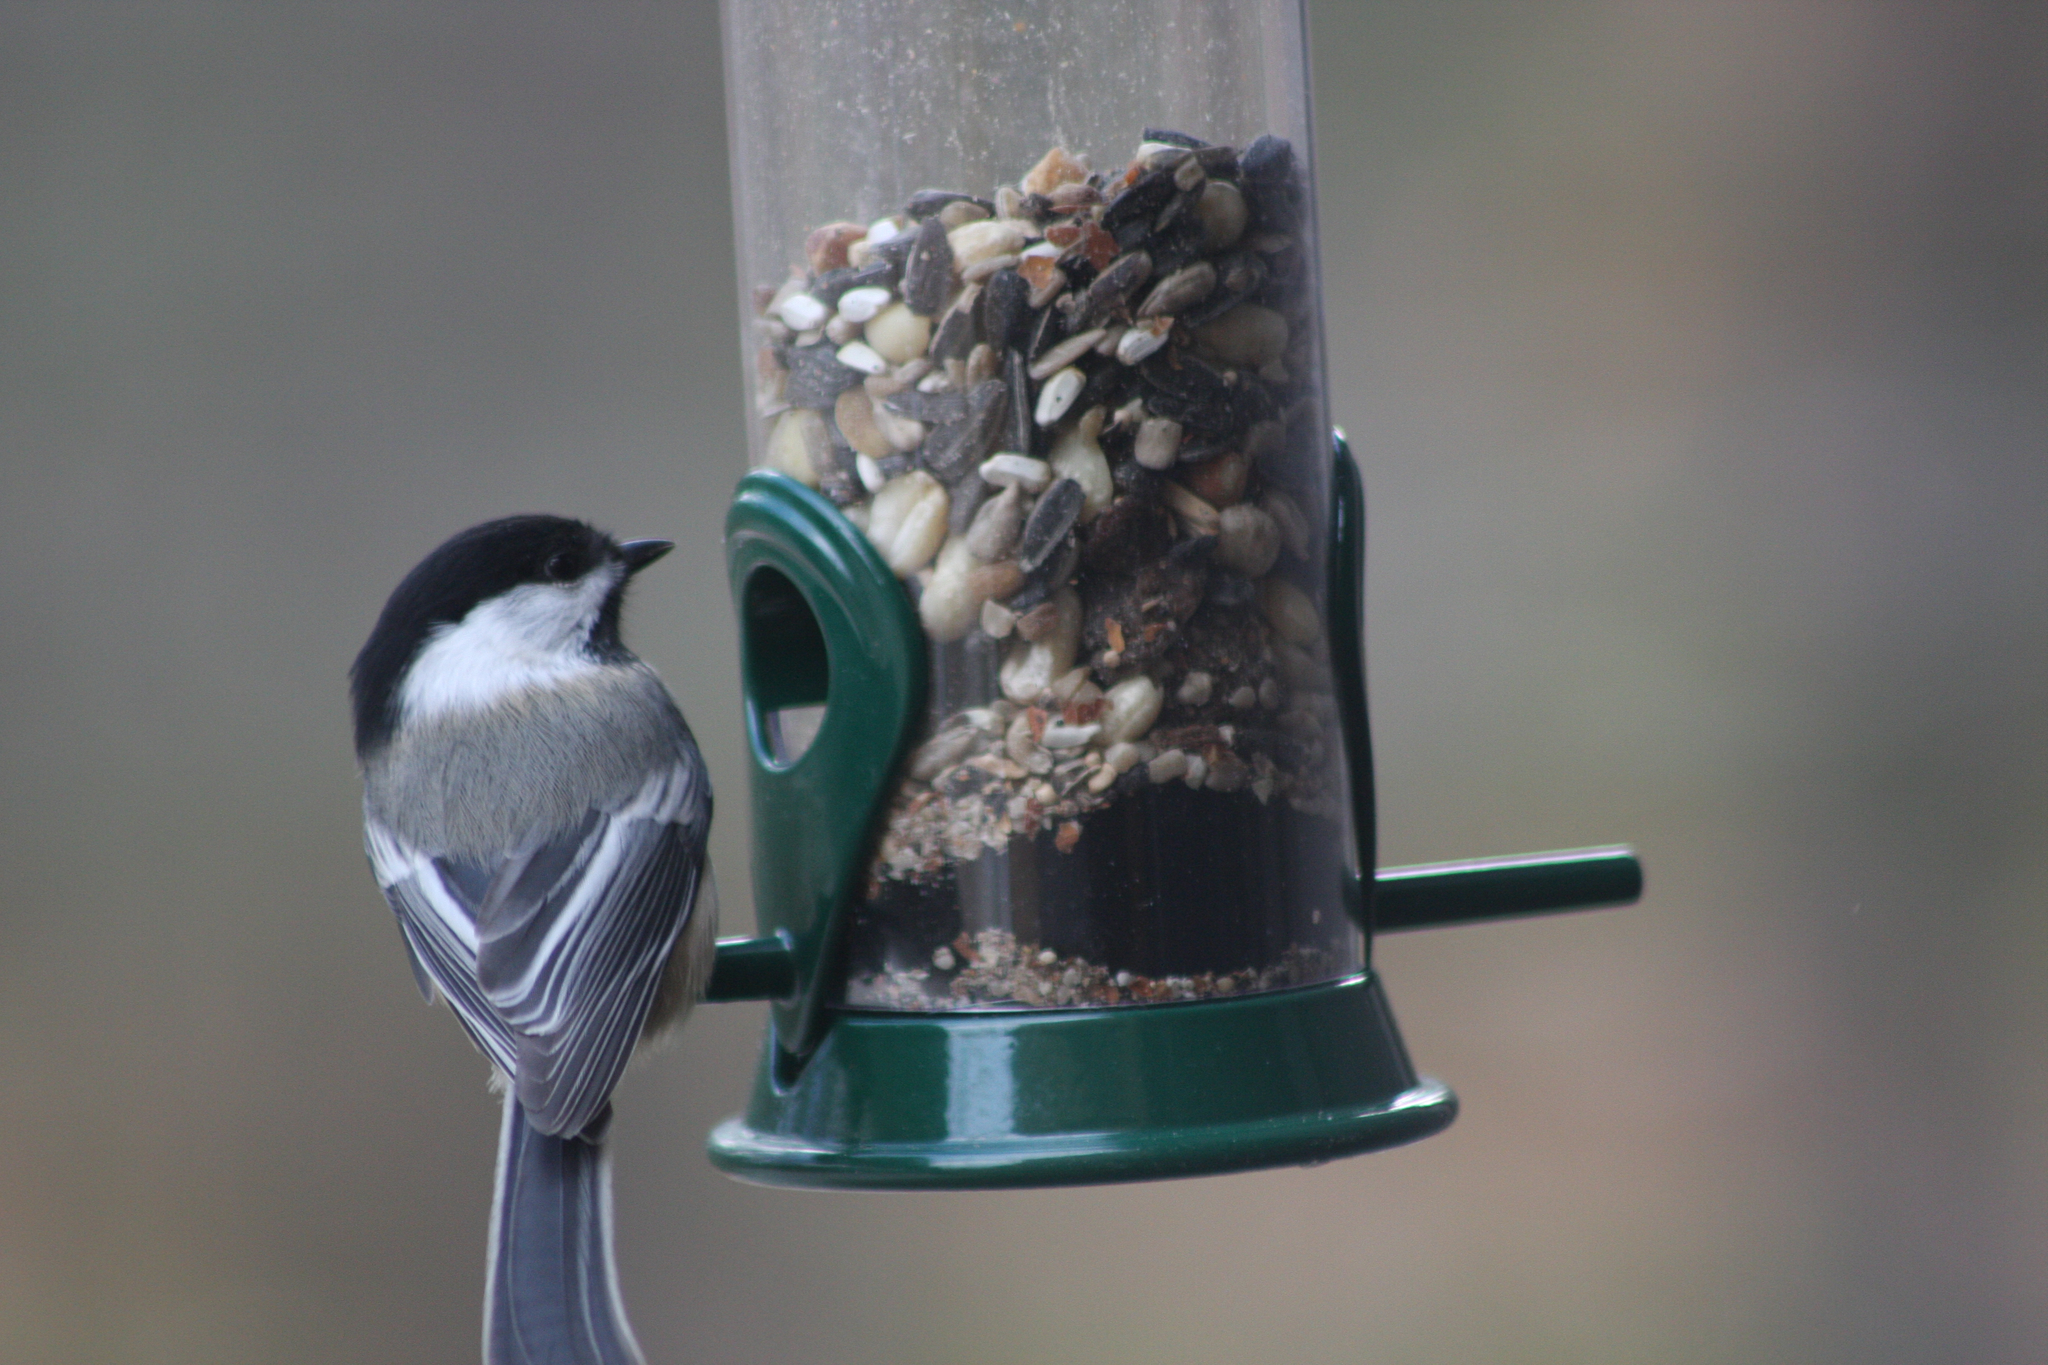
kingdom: Animalia
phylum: Chordata
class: Aves
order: Passeriformes
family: Paridae
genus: Poecile
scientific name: Poecile atricapillus
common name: Black-capped chickadee
